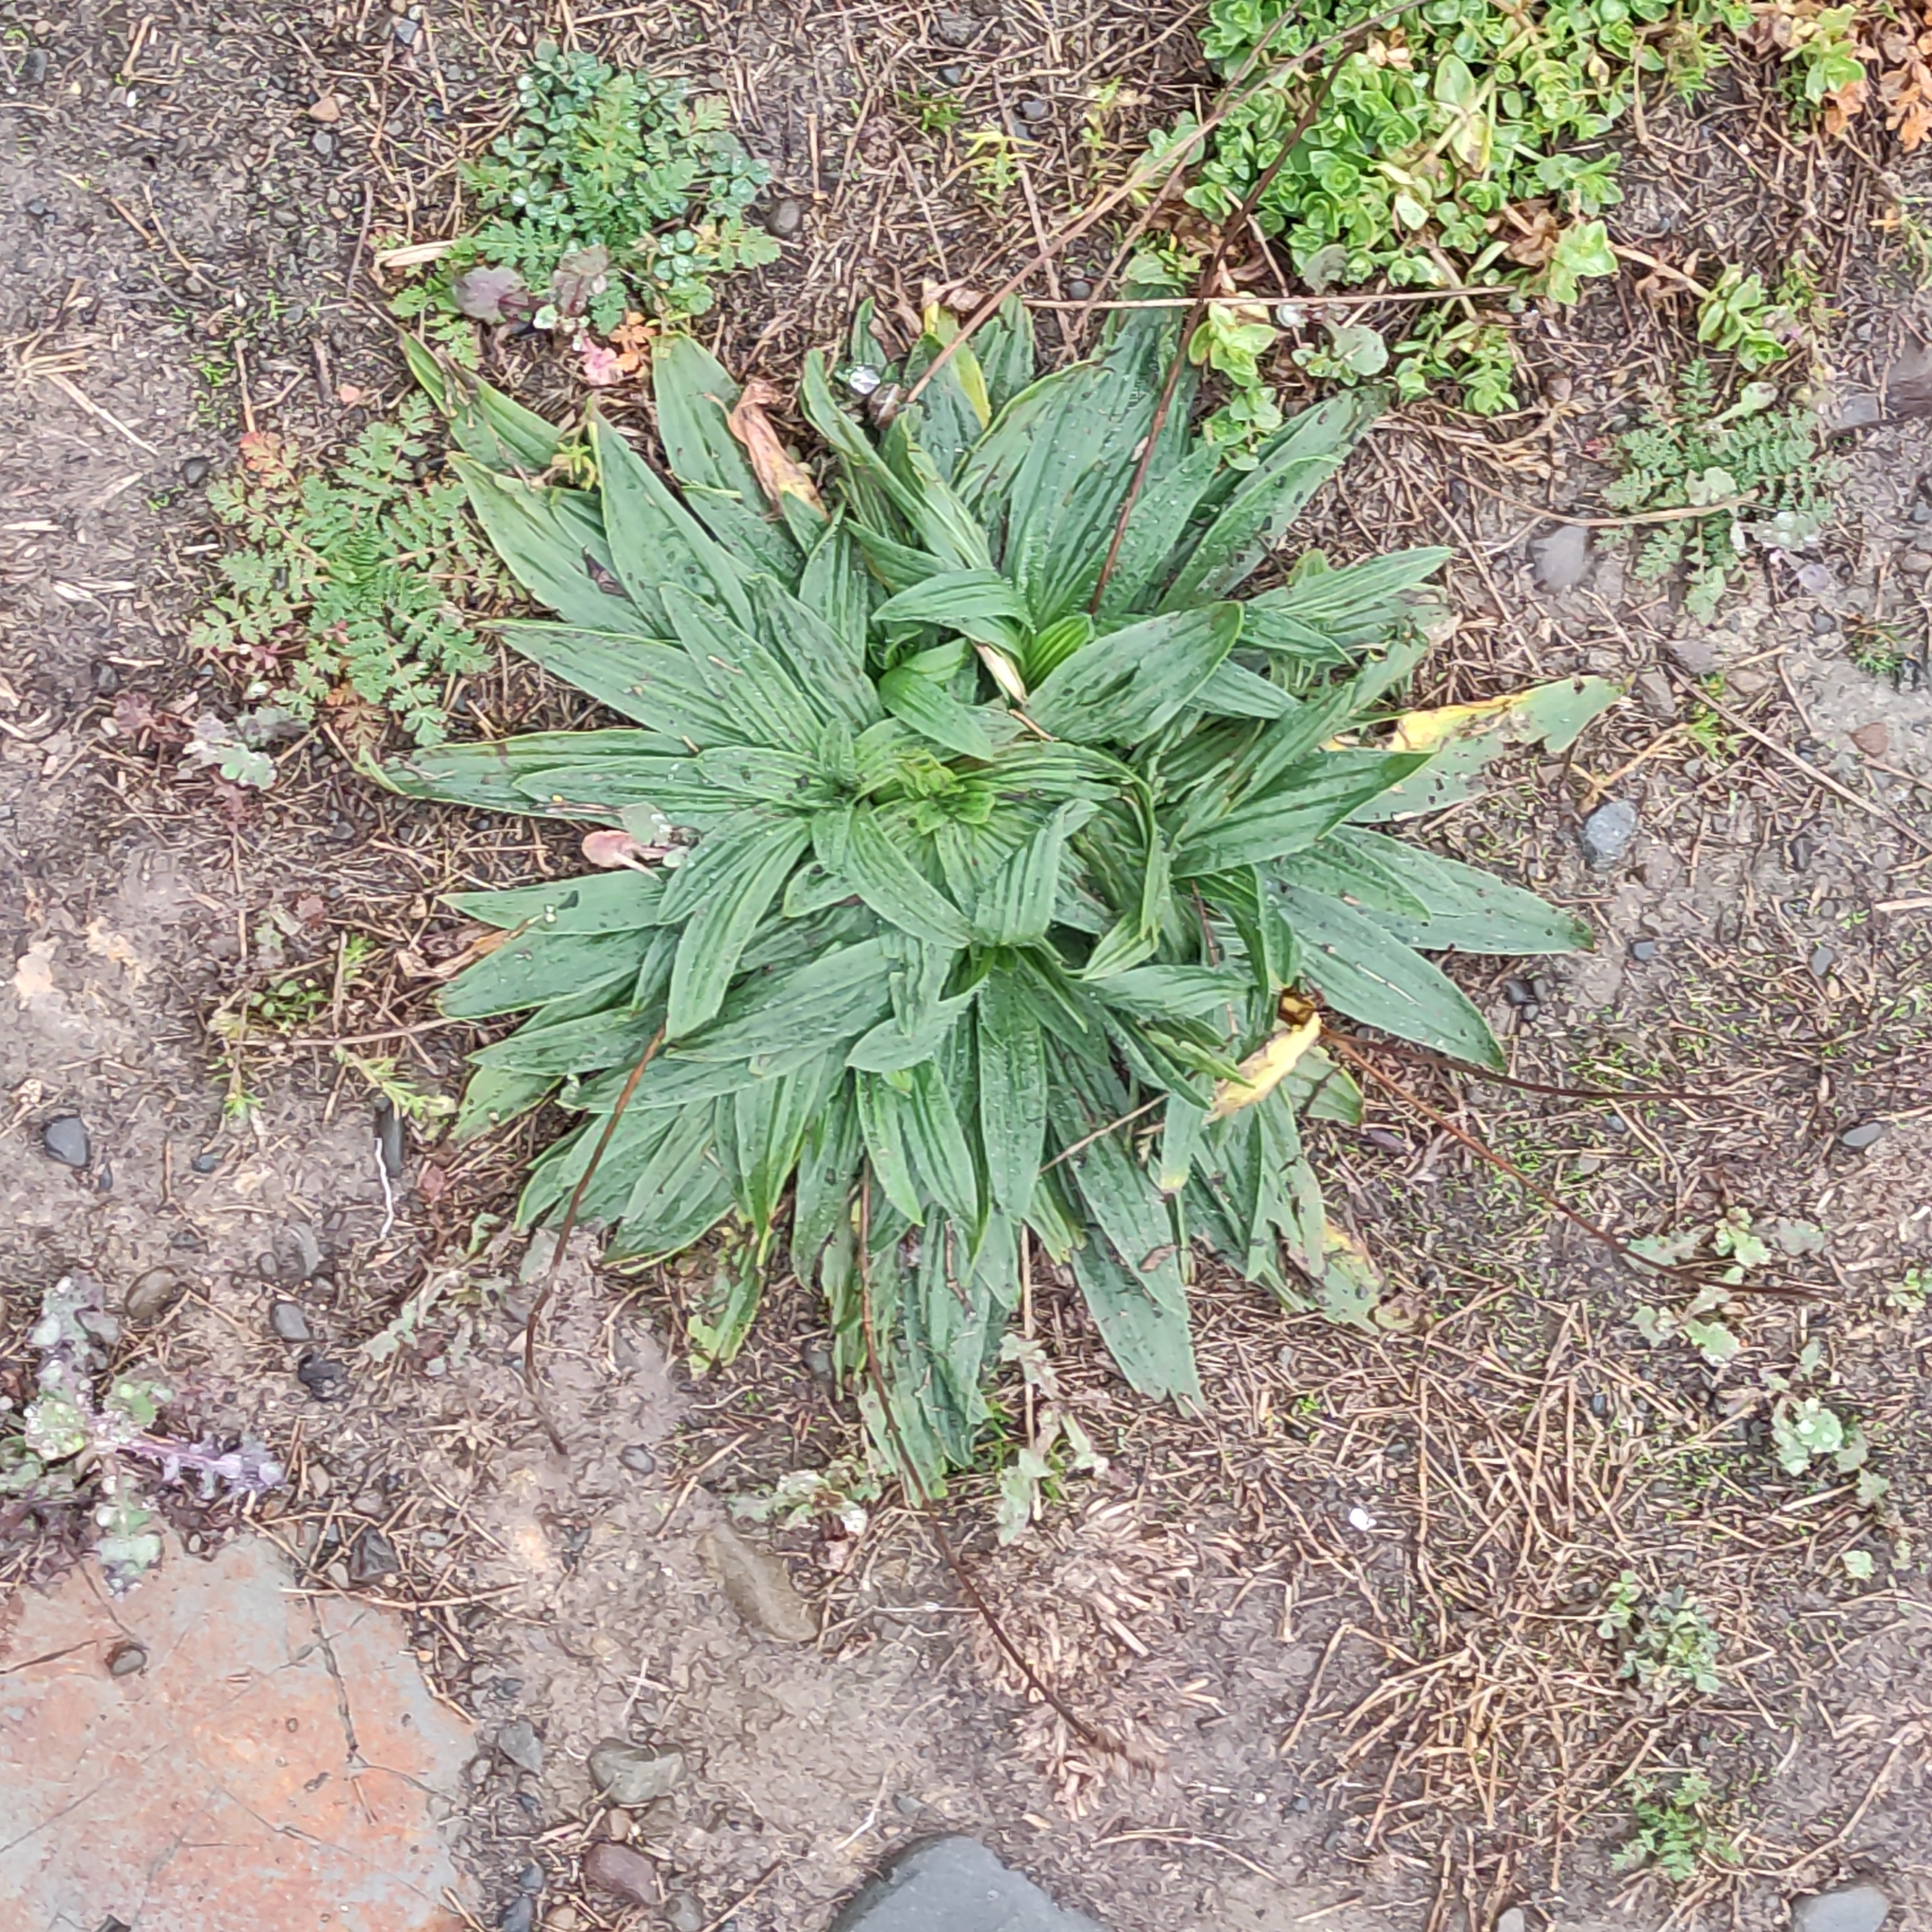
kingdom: Plantae
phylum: Tracheophyta
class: Magnoliopsida
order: Lamiales
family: Plantaginaceae
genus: Plantago
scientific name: Plantago lanceolata
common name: Ribwort plantain
